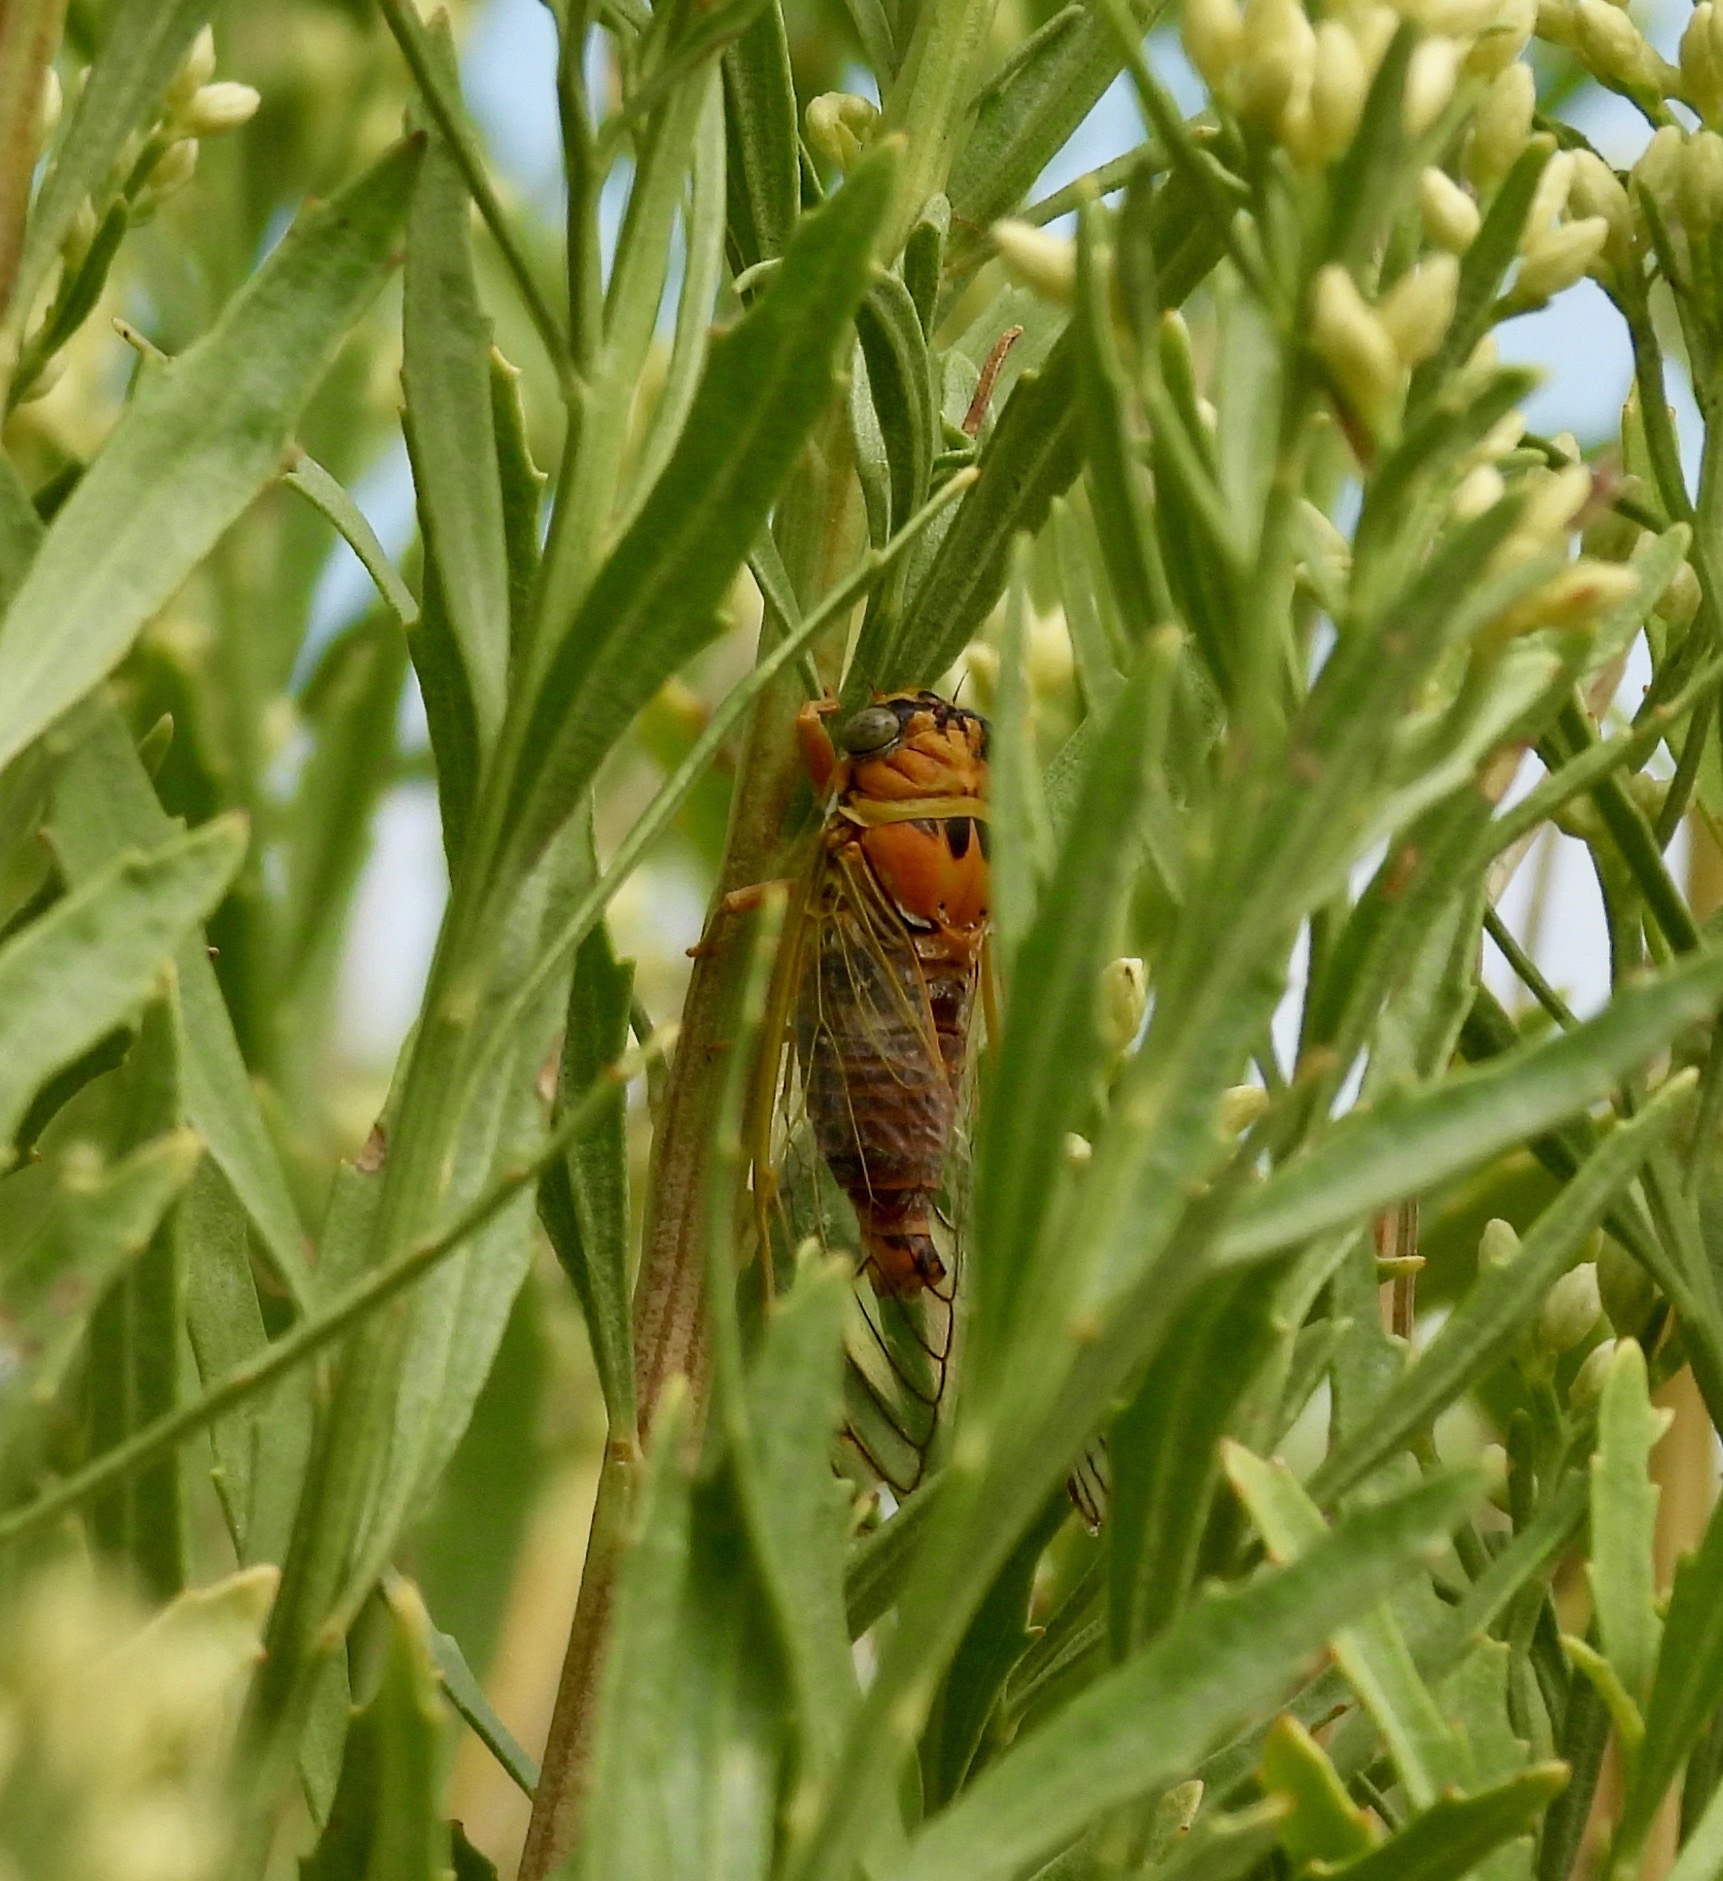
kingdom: Animalia
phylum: Arthropoda
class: Insecta
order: Hemiptera
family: Cicadidae
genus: Diceroprocta
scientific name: Diceroprocta aurantiaca
